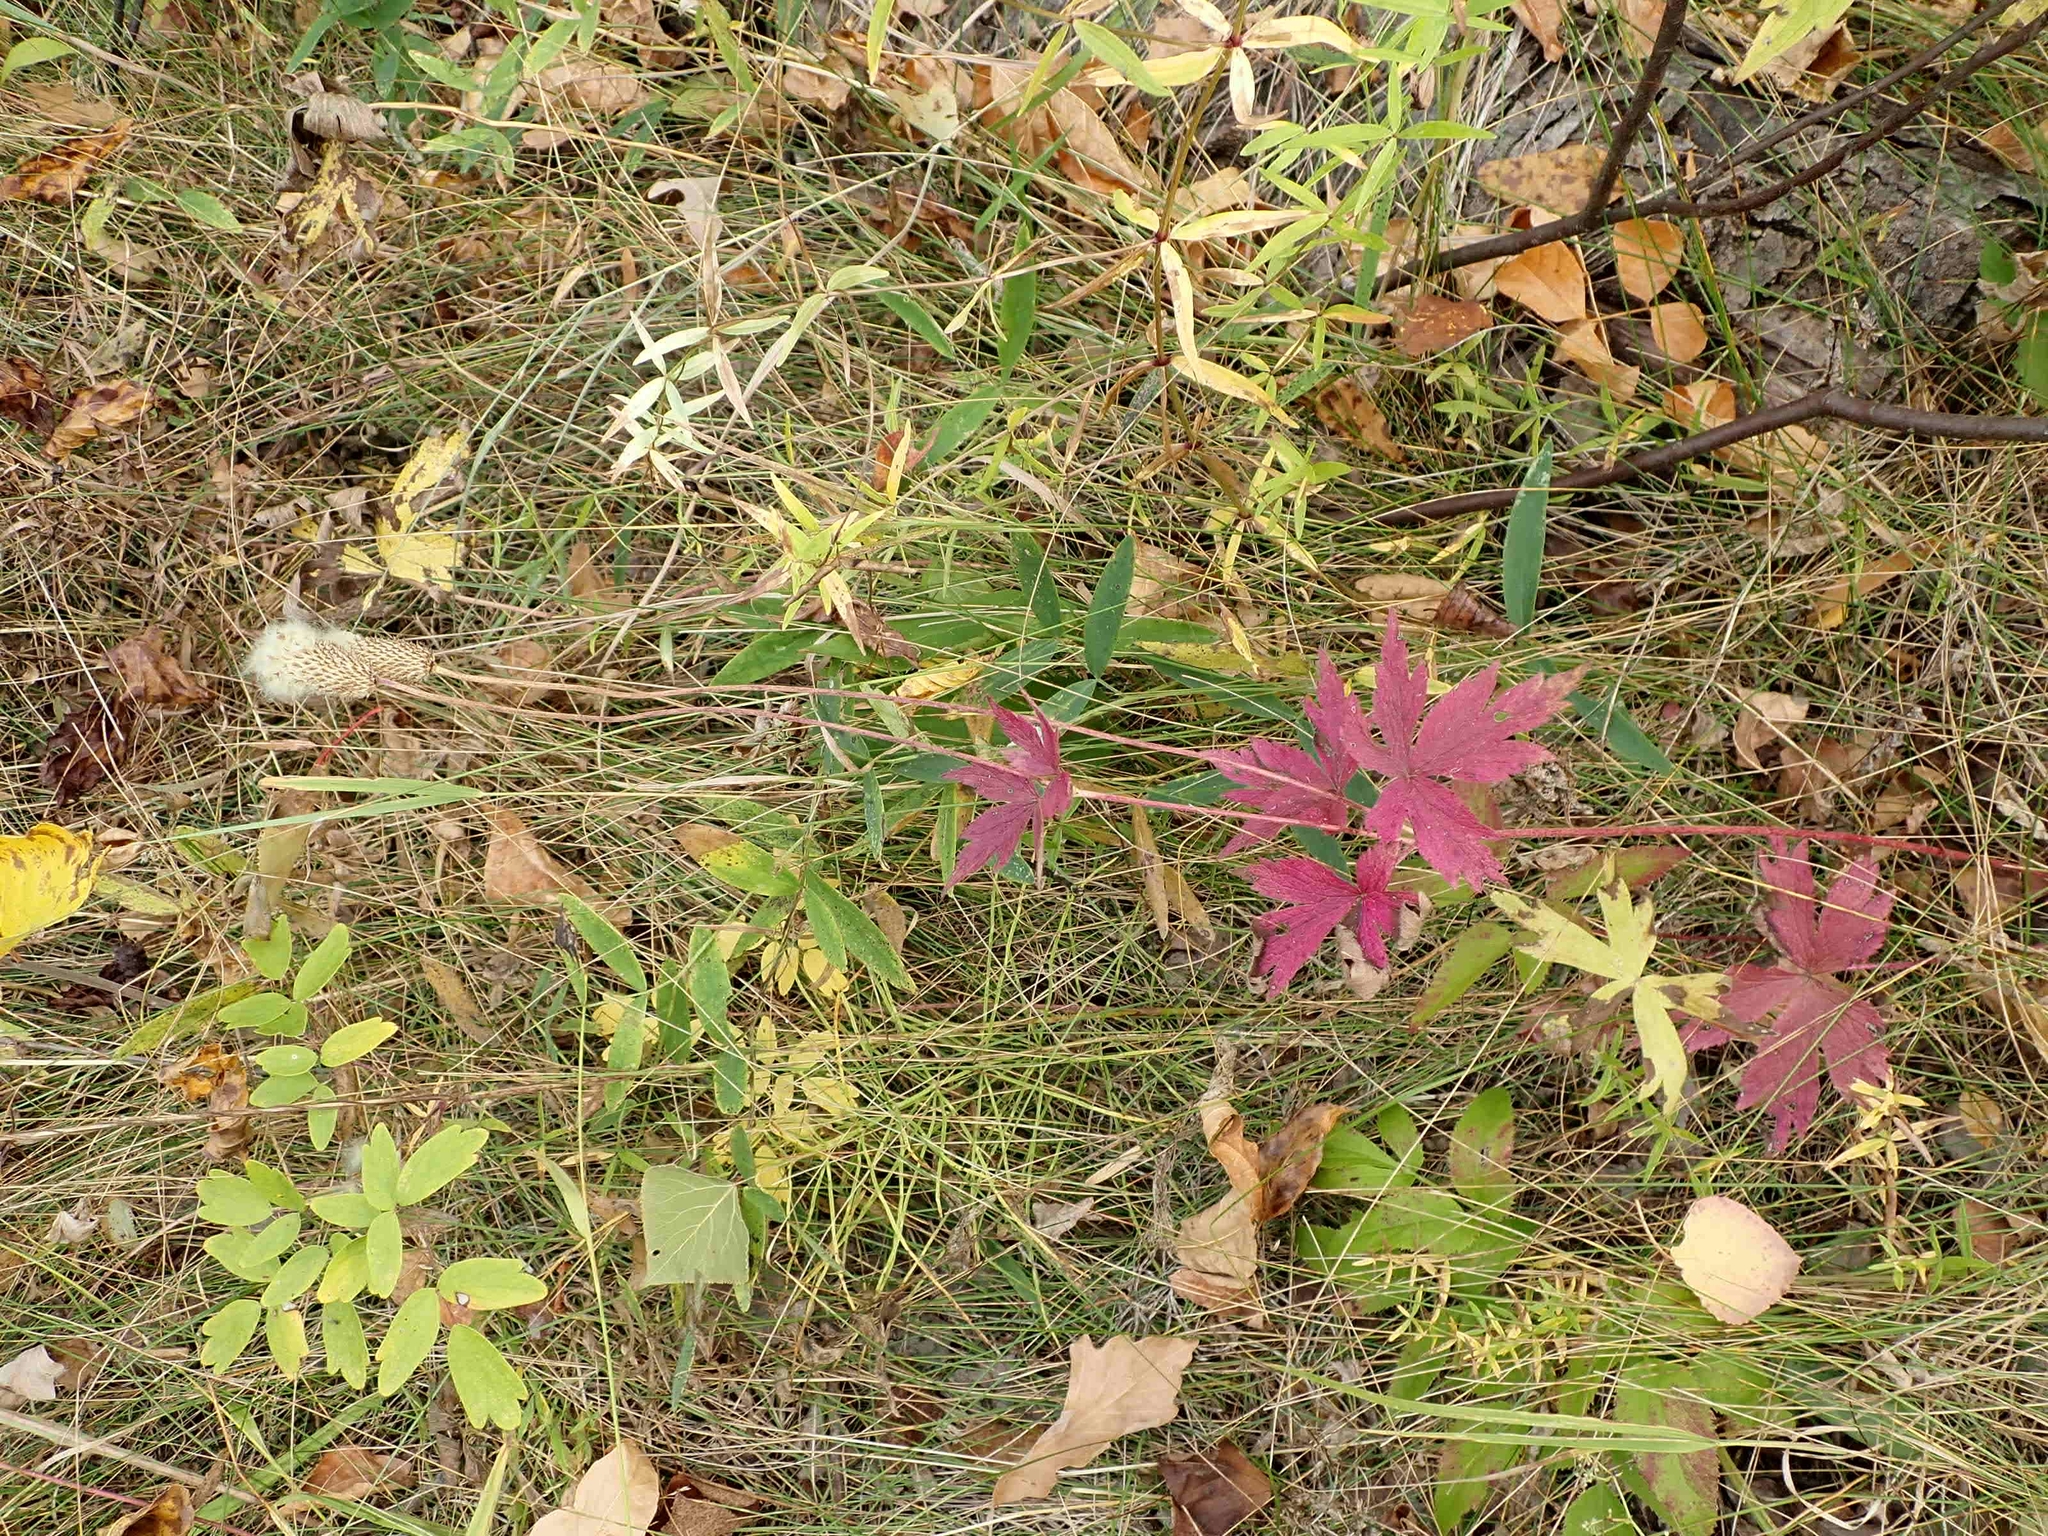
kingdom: Plantae
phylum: Tracheophyta
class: Magnoliopsida
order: Ranunculales
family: Ranunculaceae
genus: Anemone
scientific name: Anemone virginiana
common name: Tall anemone
